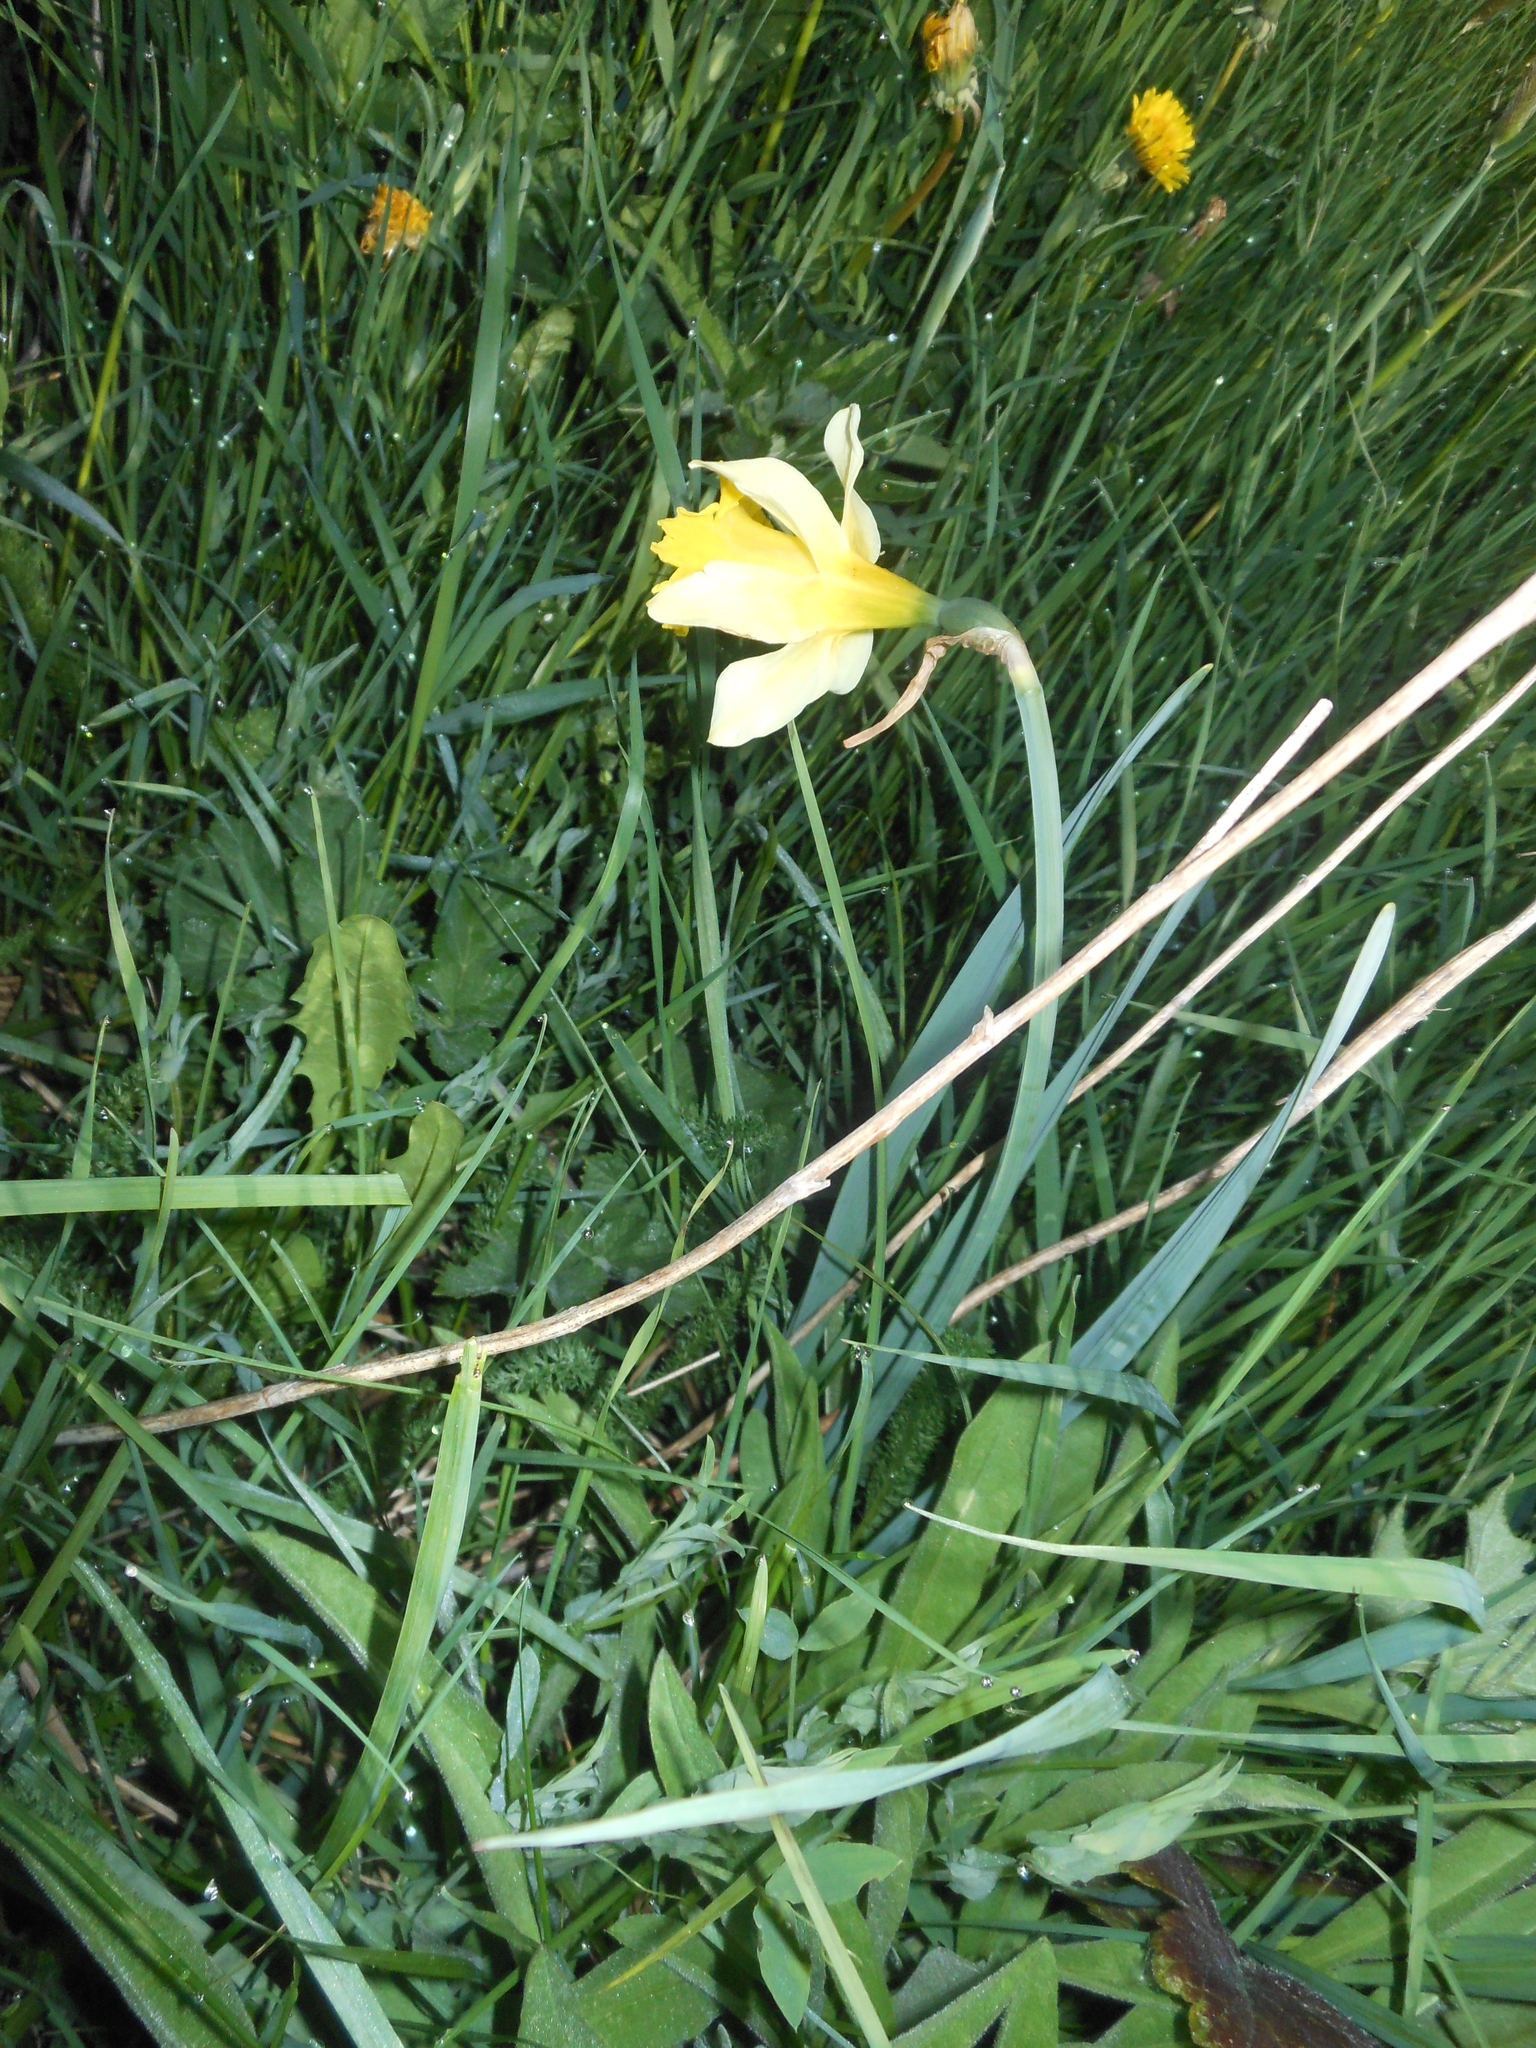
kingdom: Plantae
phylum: Tracheophyta
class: Liliopsida
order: Asparagales
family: Amaryllidaceae
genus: Narcissus
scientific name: Narcissus pseudonarcissus
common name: Daffodil
